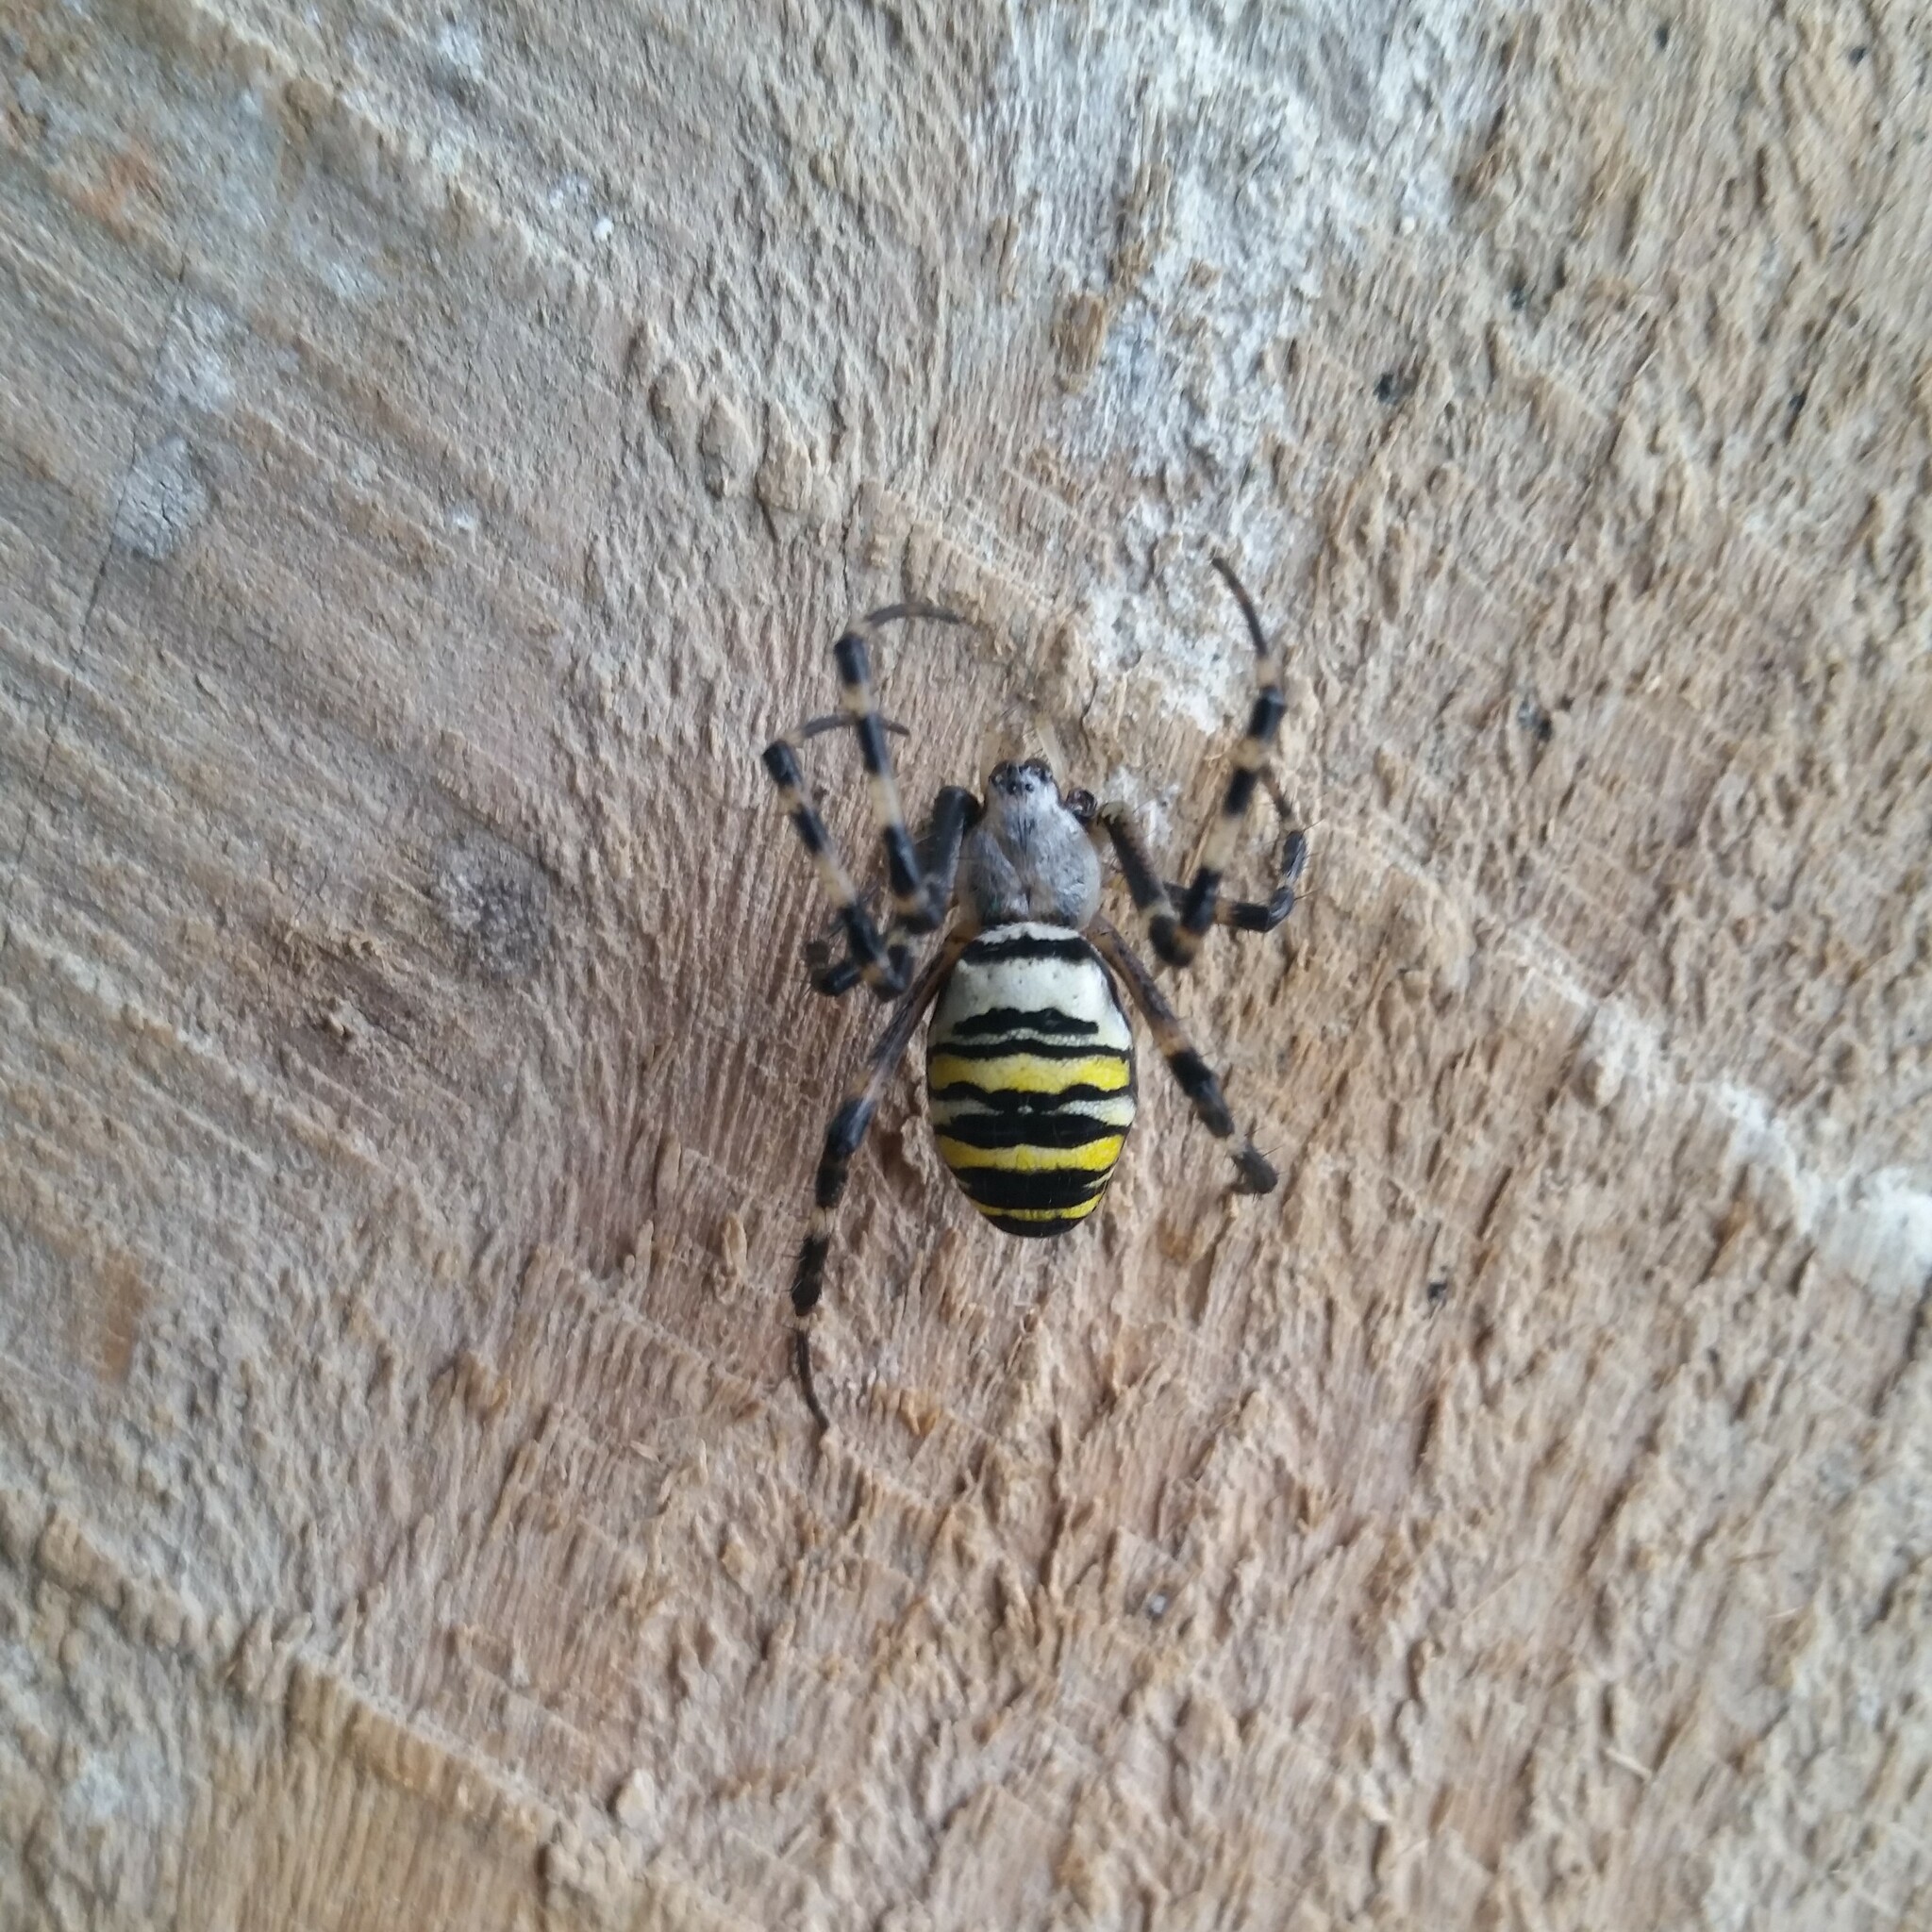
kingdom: Animalia
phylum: Arthropoda
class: Arachnida
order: Araneae
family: Araneidae
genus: Argiope
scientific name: Argiope bruennichi
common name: Wasp spider
